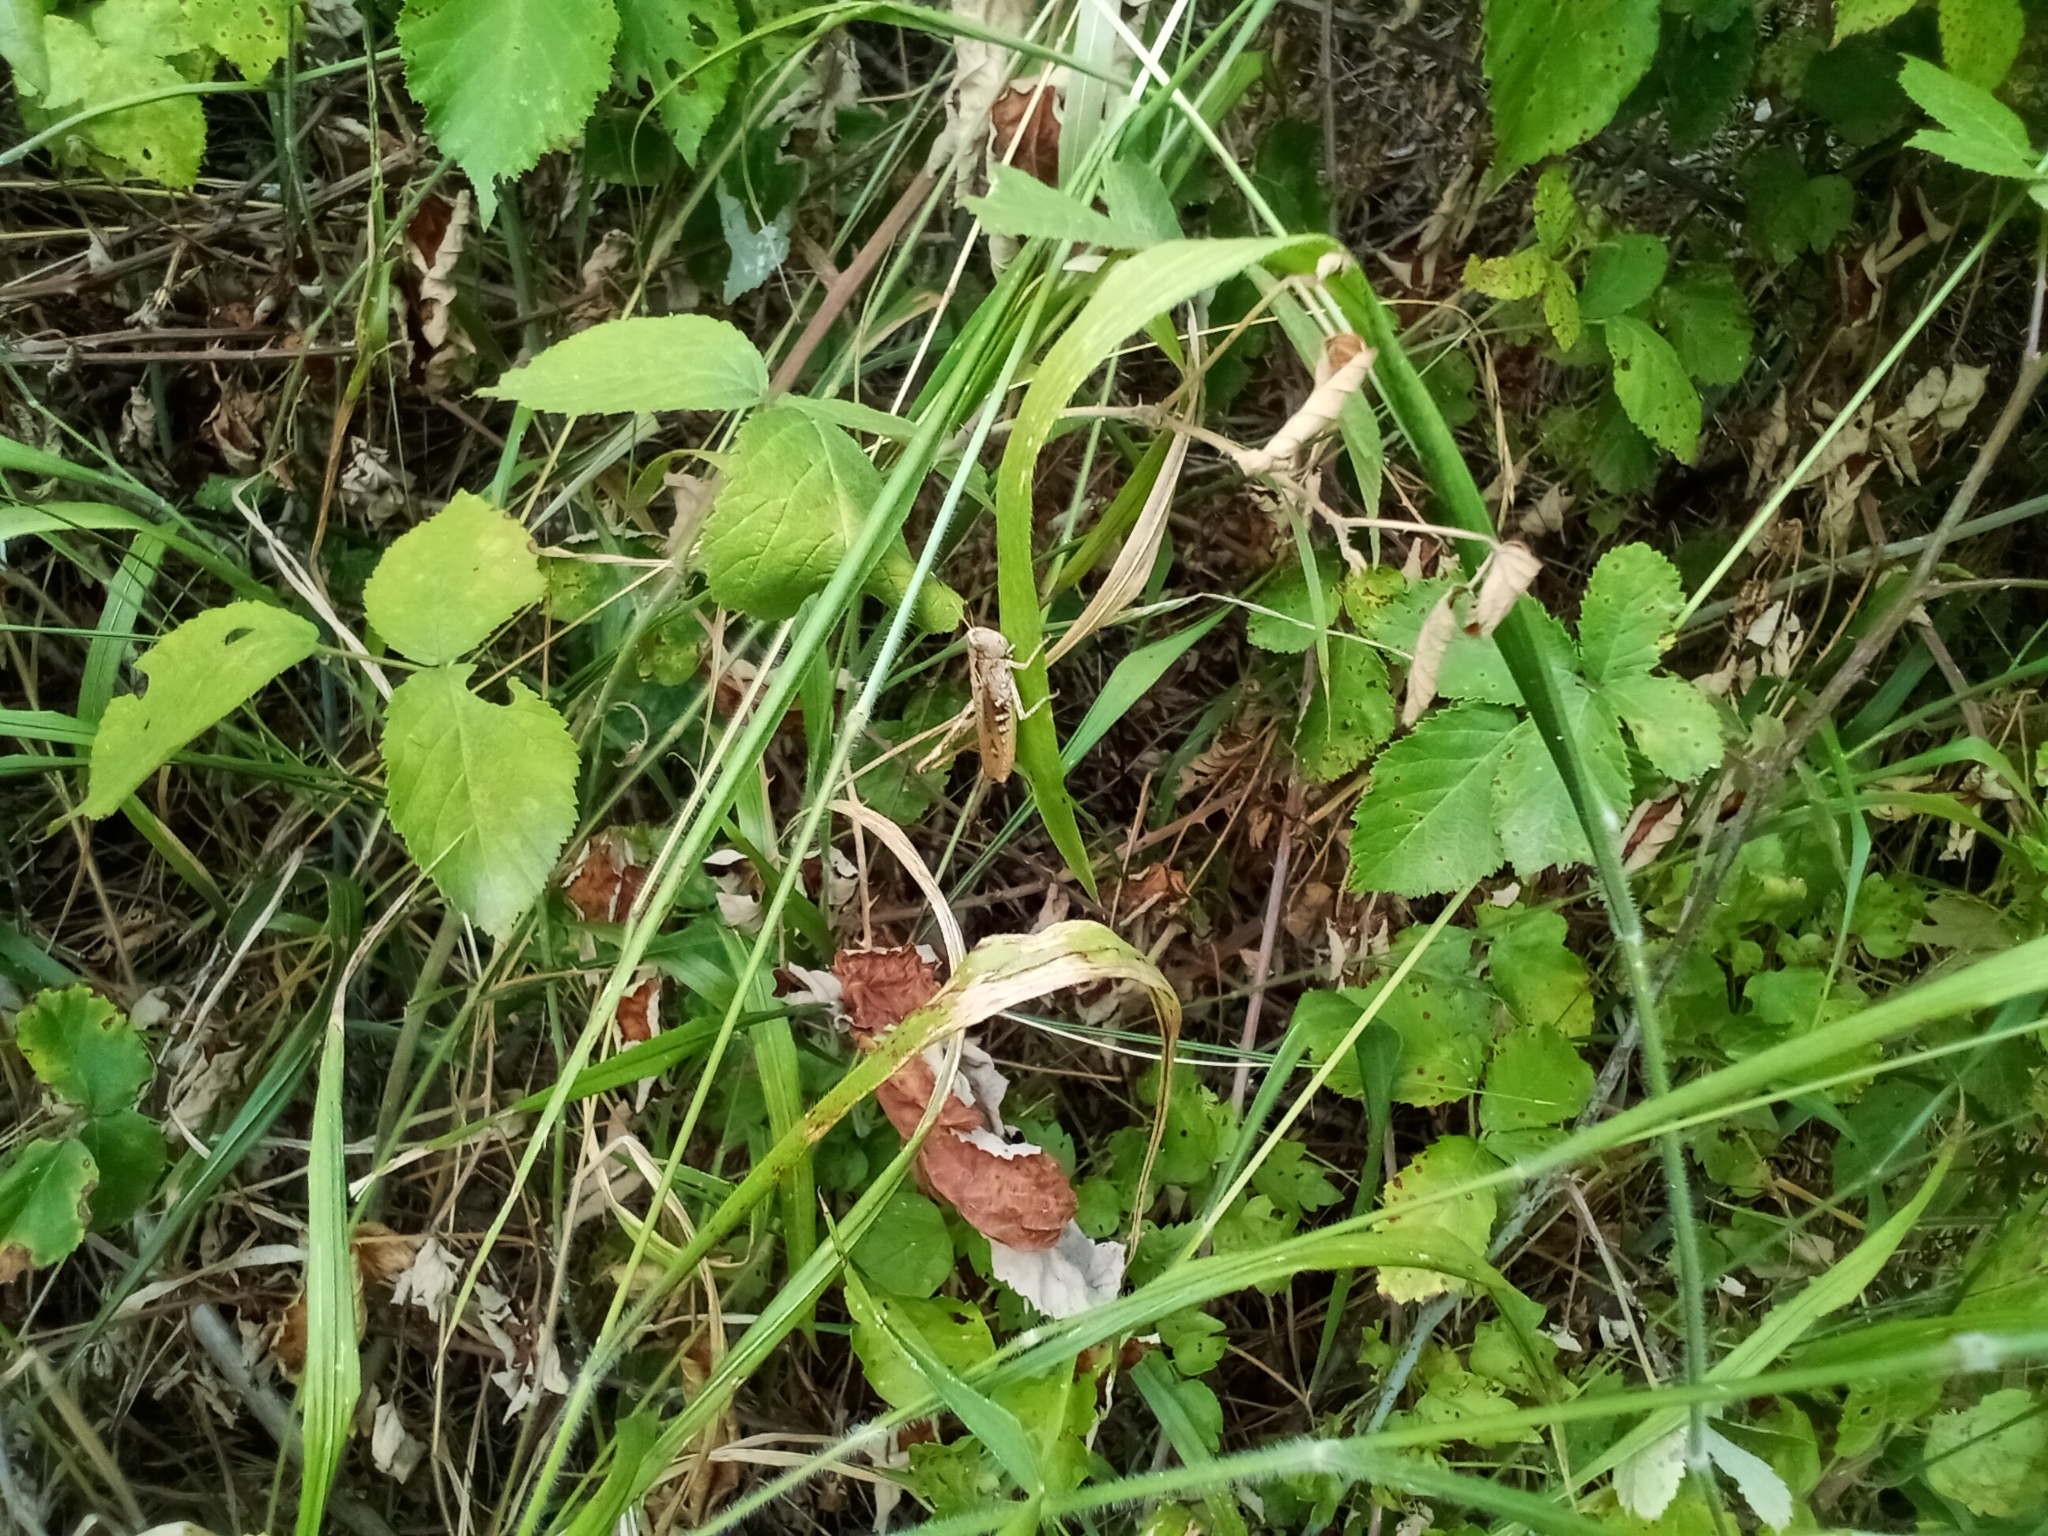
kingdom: Animalia
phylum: Arthropoda
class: Insecta
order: Orthoptera
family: Acrididae
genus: Gomphocerippus
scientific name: Gomphocerippus rufus
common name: Rufous grasshopper
